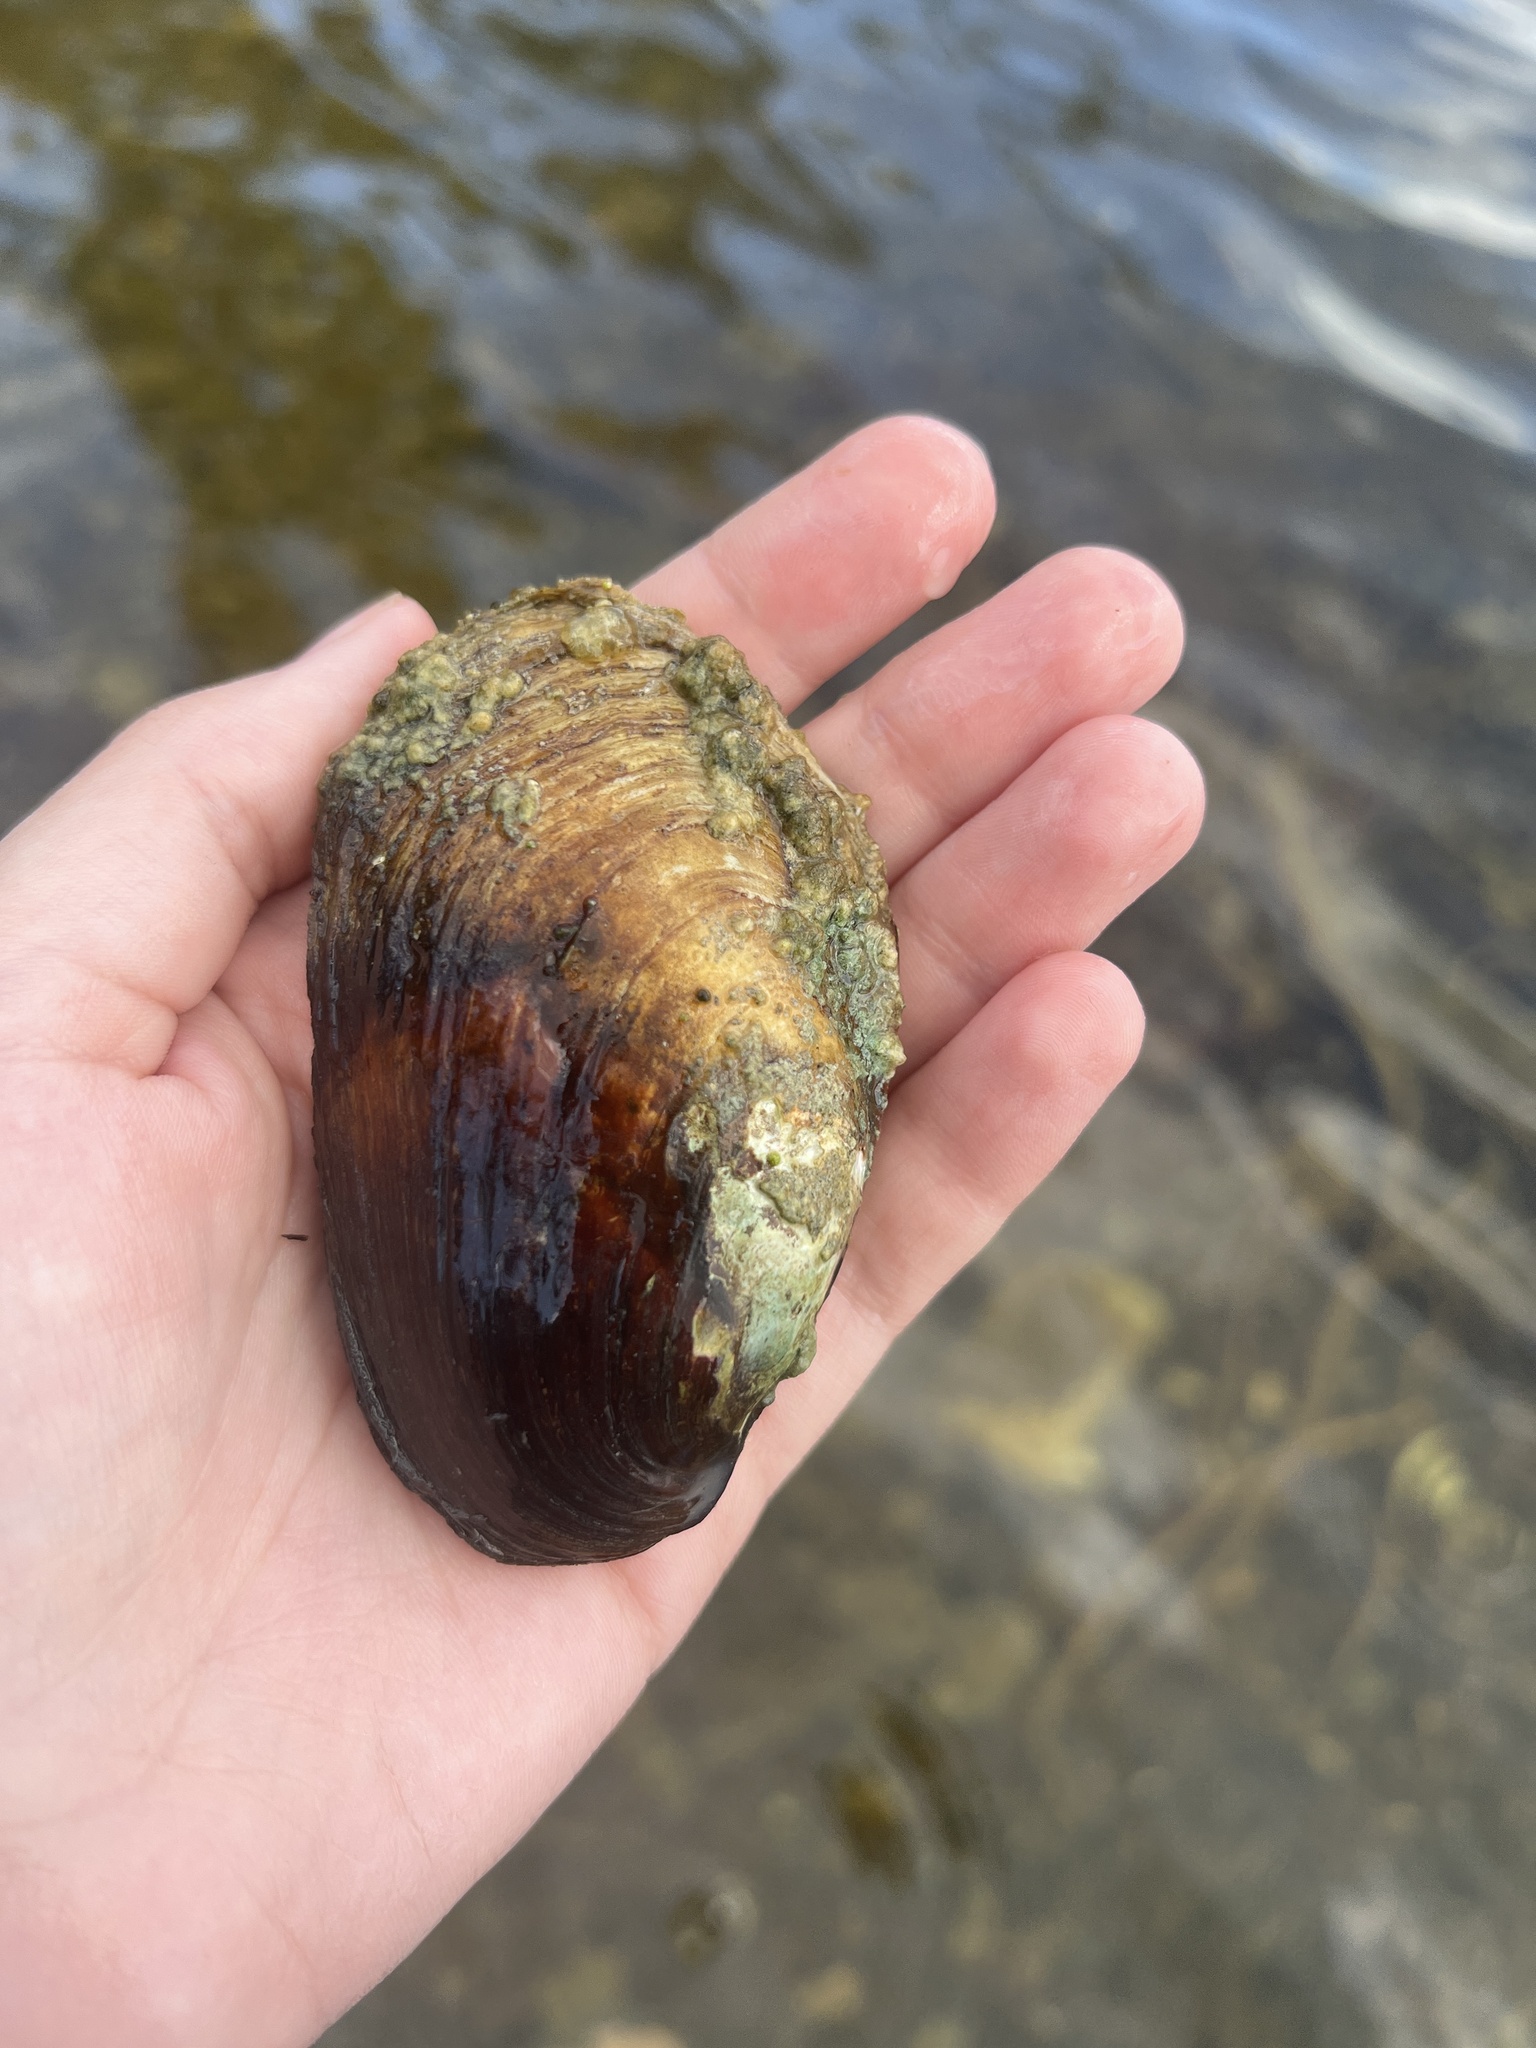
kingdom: Animalia
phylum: Mollusca
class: Bivalvia
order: Unionida
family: Unionidae
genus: Lampsilis
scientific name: Lampsilis siliquoidea
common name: Fatmucket
